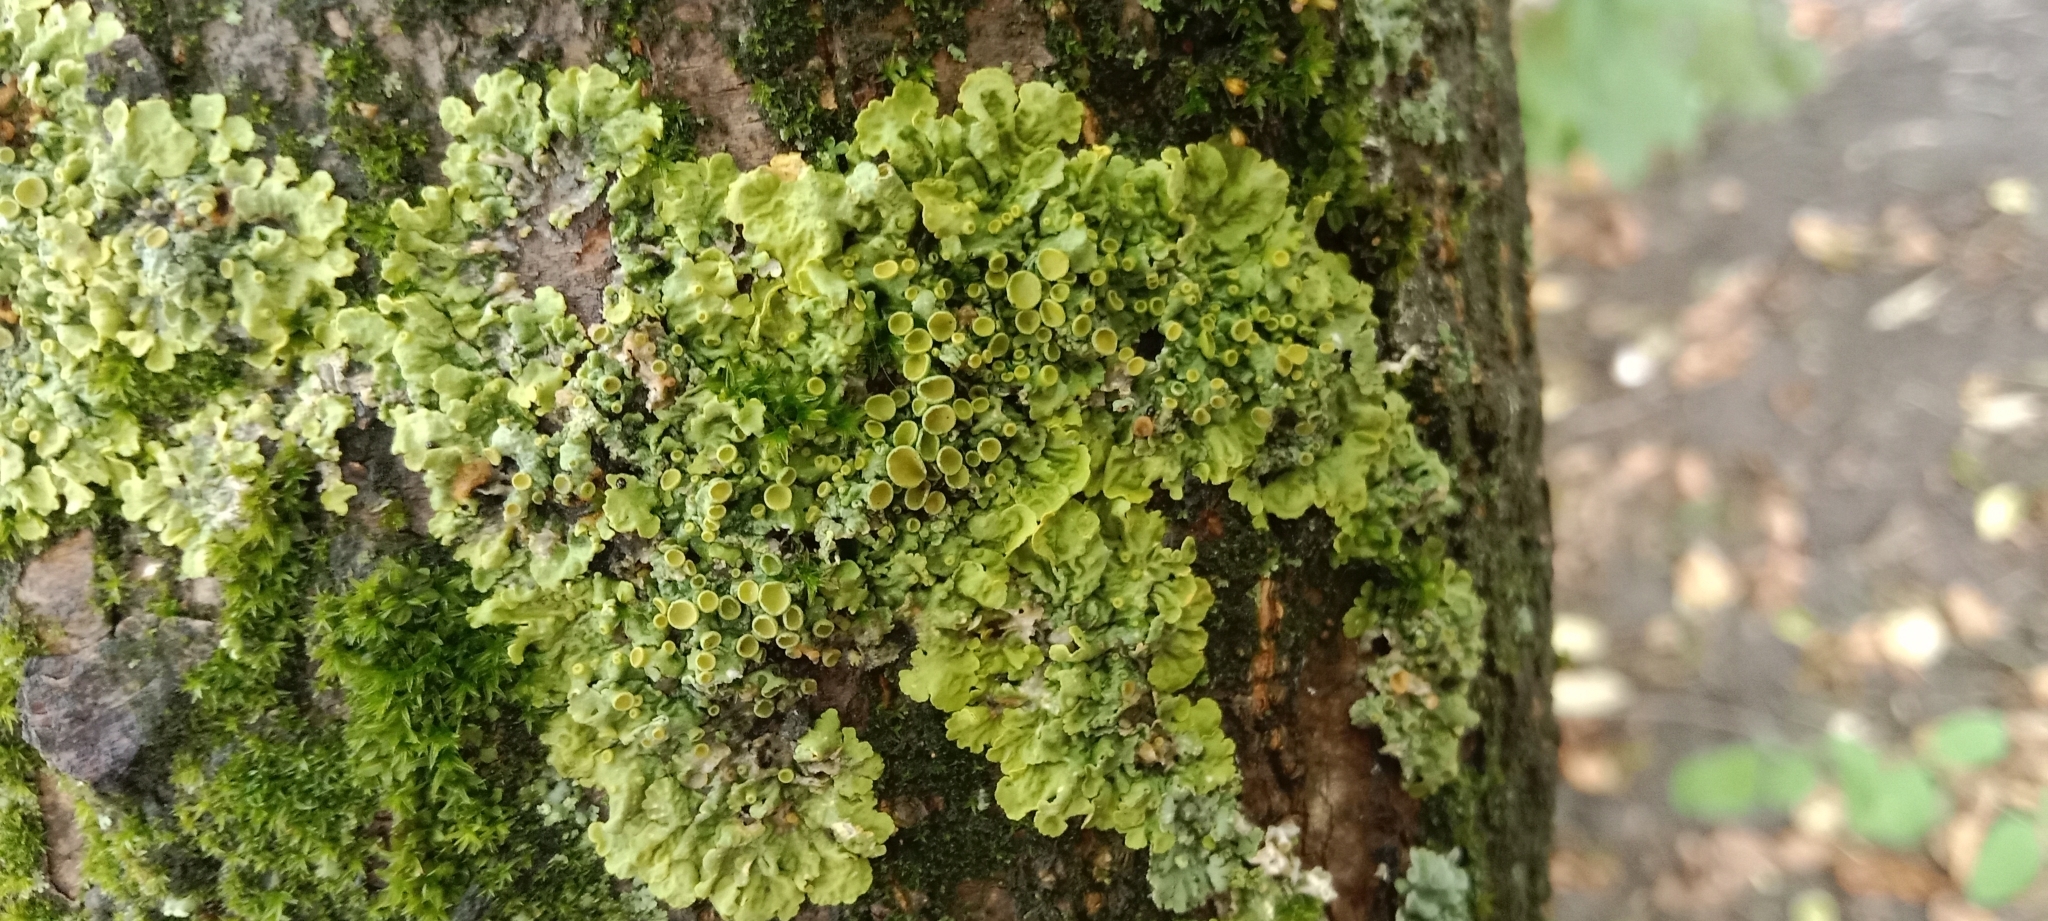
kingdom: Fungi
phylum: Ascomycota
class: Lecanoromycetes
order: Teloschistales
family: Teloschistaceae
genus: Xanthoria
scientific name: Xanthoria parietina
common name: Common orange lichen
